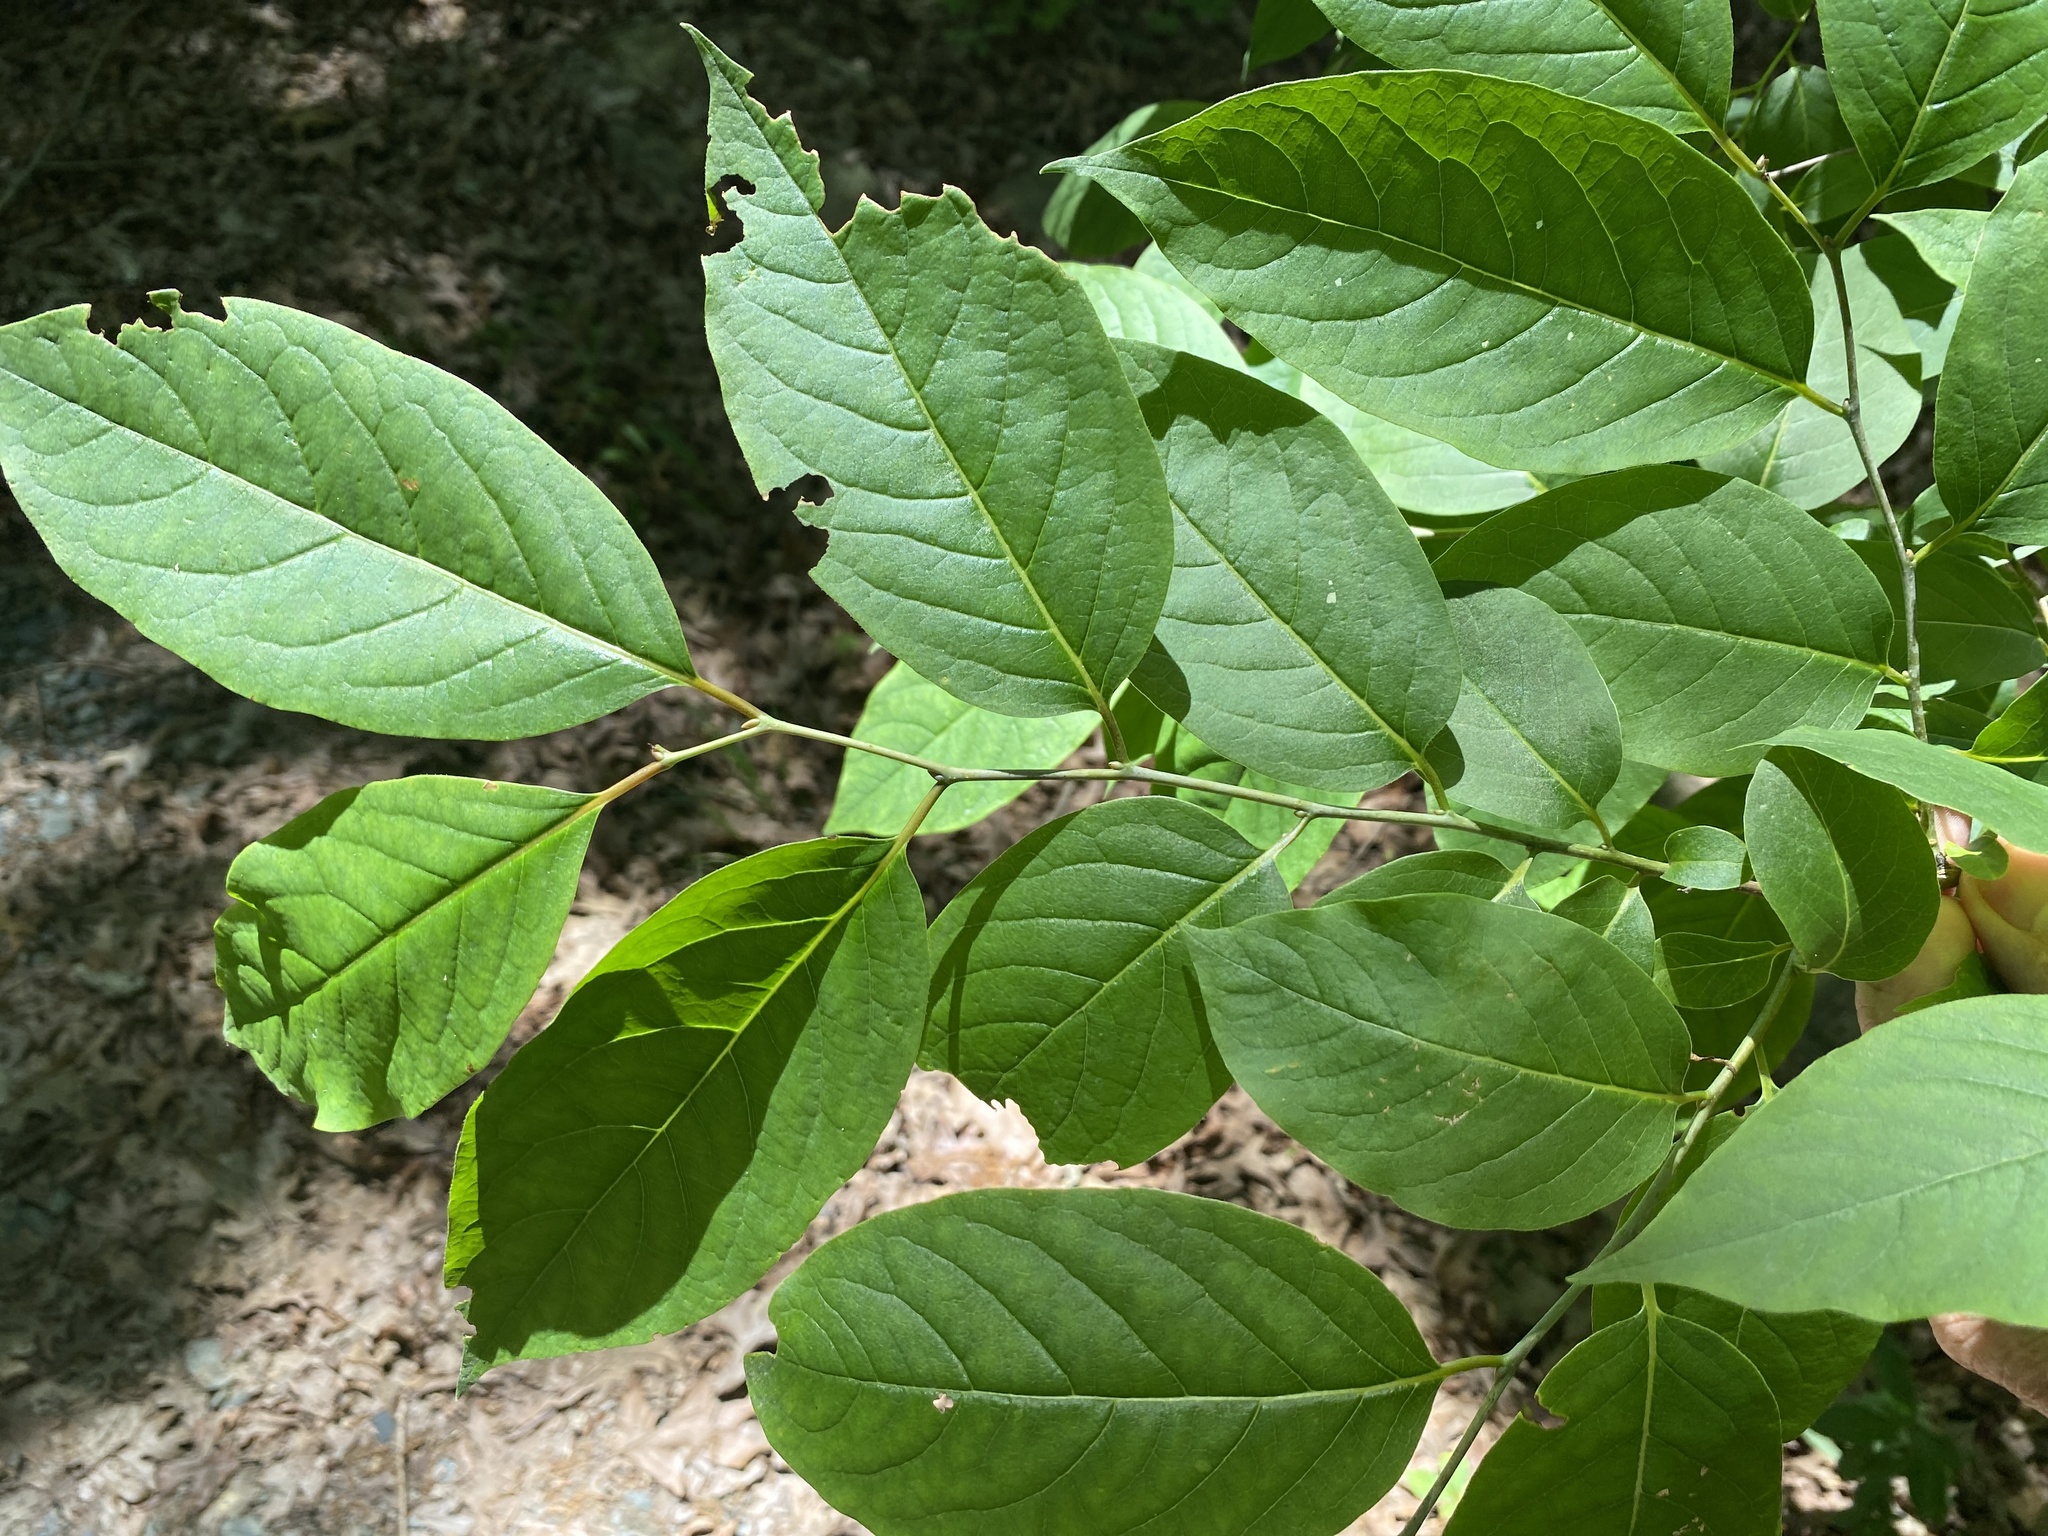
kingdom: Plantae
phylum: Tracheophyta
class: Magnoliopsida
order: Ericales
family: Ebenaceae
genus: Diospyros
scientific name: Diospyros virginiana
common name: Persimmon
